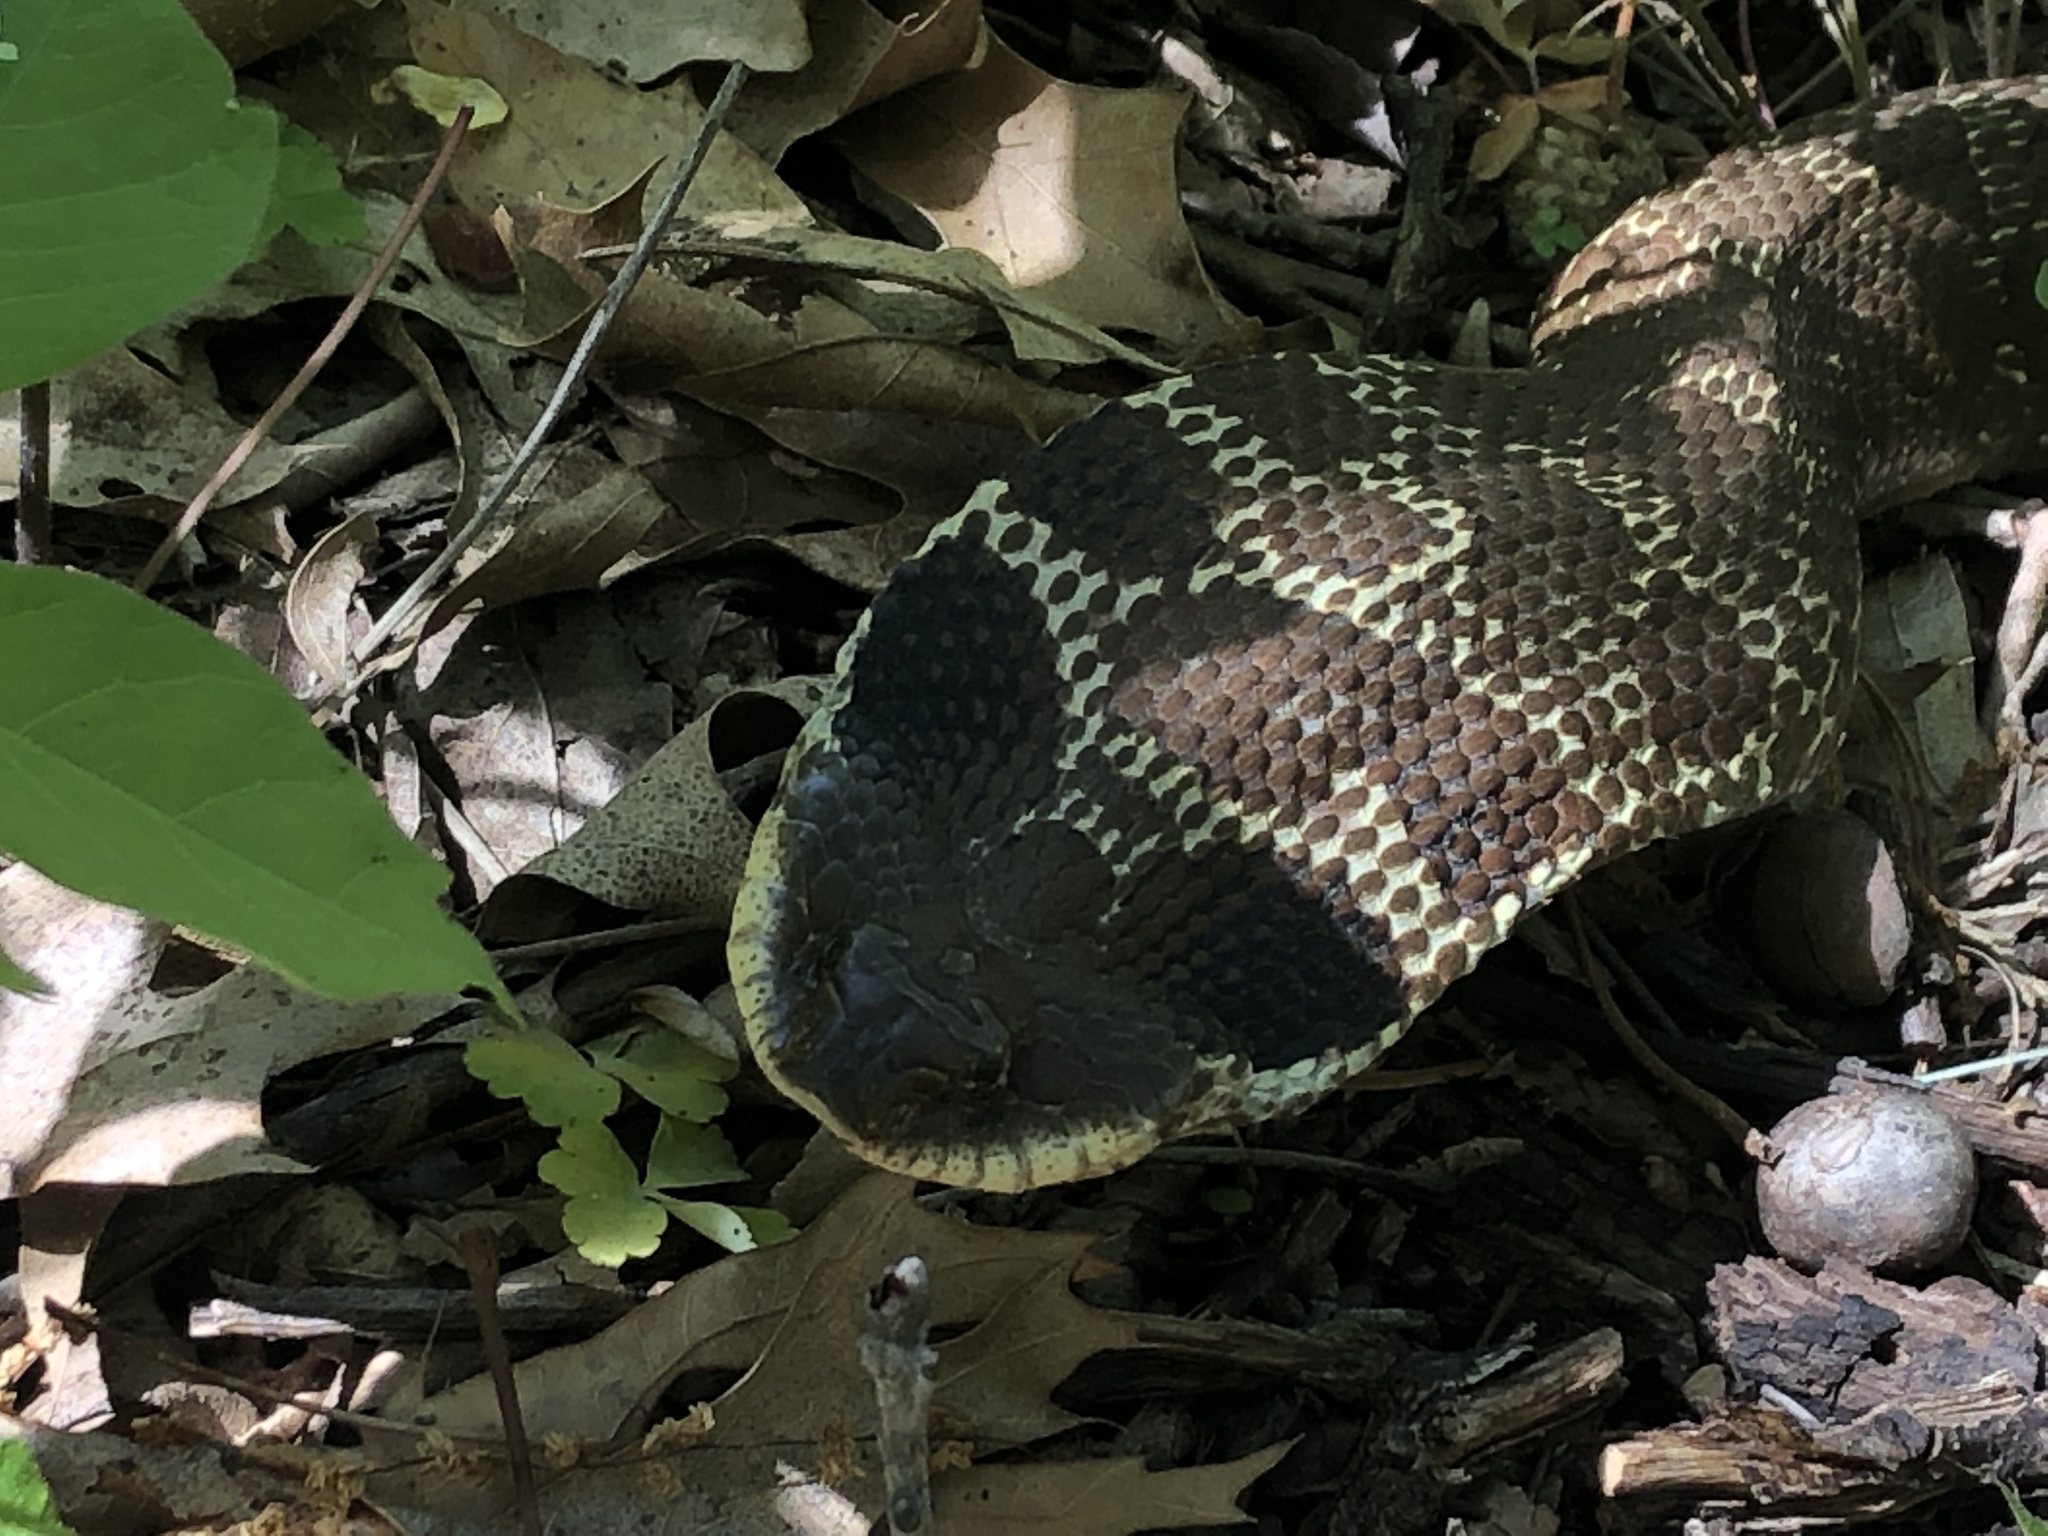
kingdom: Animalia
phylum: Chordata
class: Squamata
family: Colubridae
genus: Heterodon
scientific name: Heterodon platirhinos
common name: Eastern hognose snake
